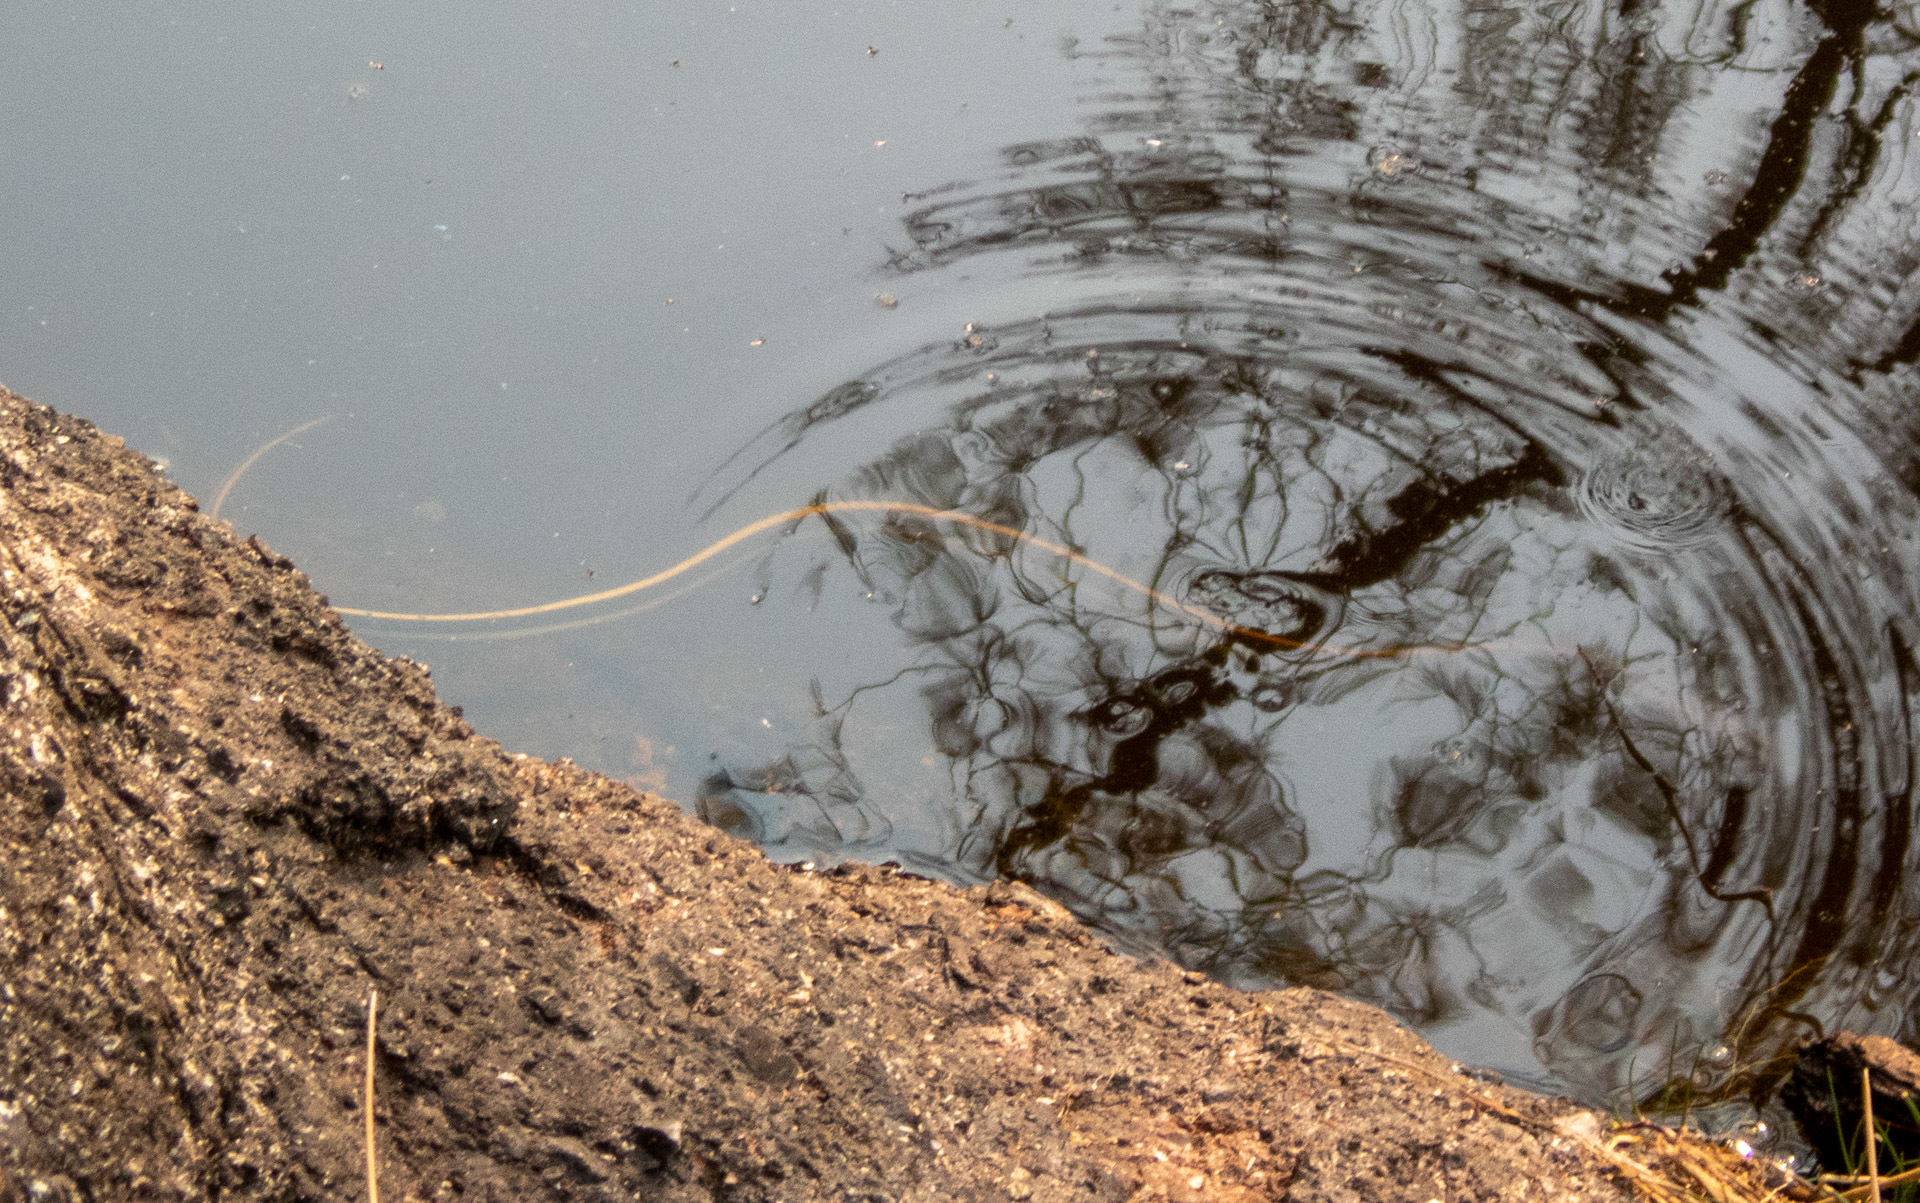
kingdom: Animalia
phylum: Chordata
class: Squamata
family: Colubridae
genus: Thamnophis
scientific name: Thamnophis sirtalis
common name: Common garter snake
